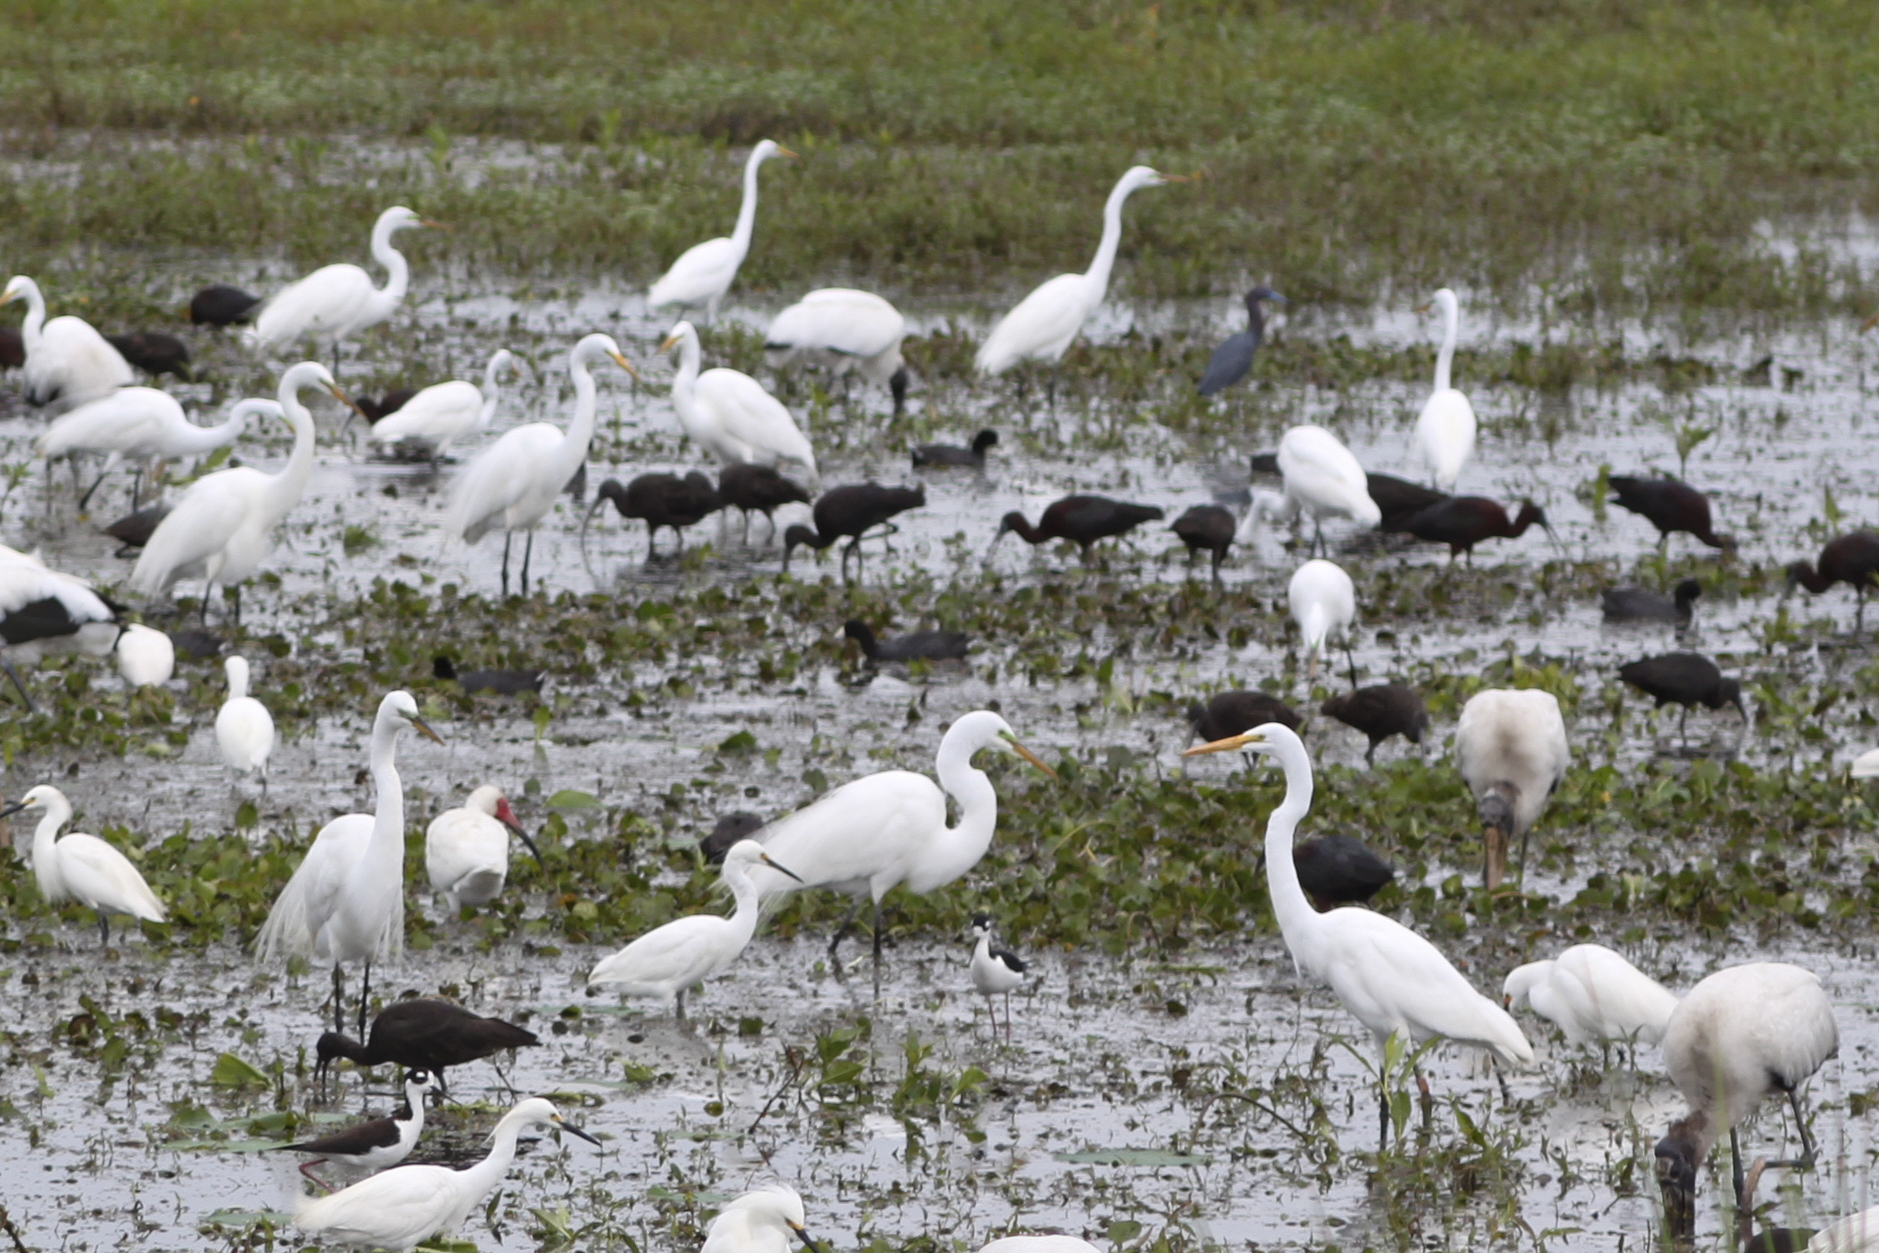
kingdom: Animalia
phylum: Chordata
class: Aves
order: Pelecaniformes
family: Ardeidae
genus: Ardea
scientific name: Ardea alba
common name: Great egret
